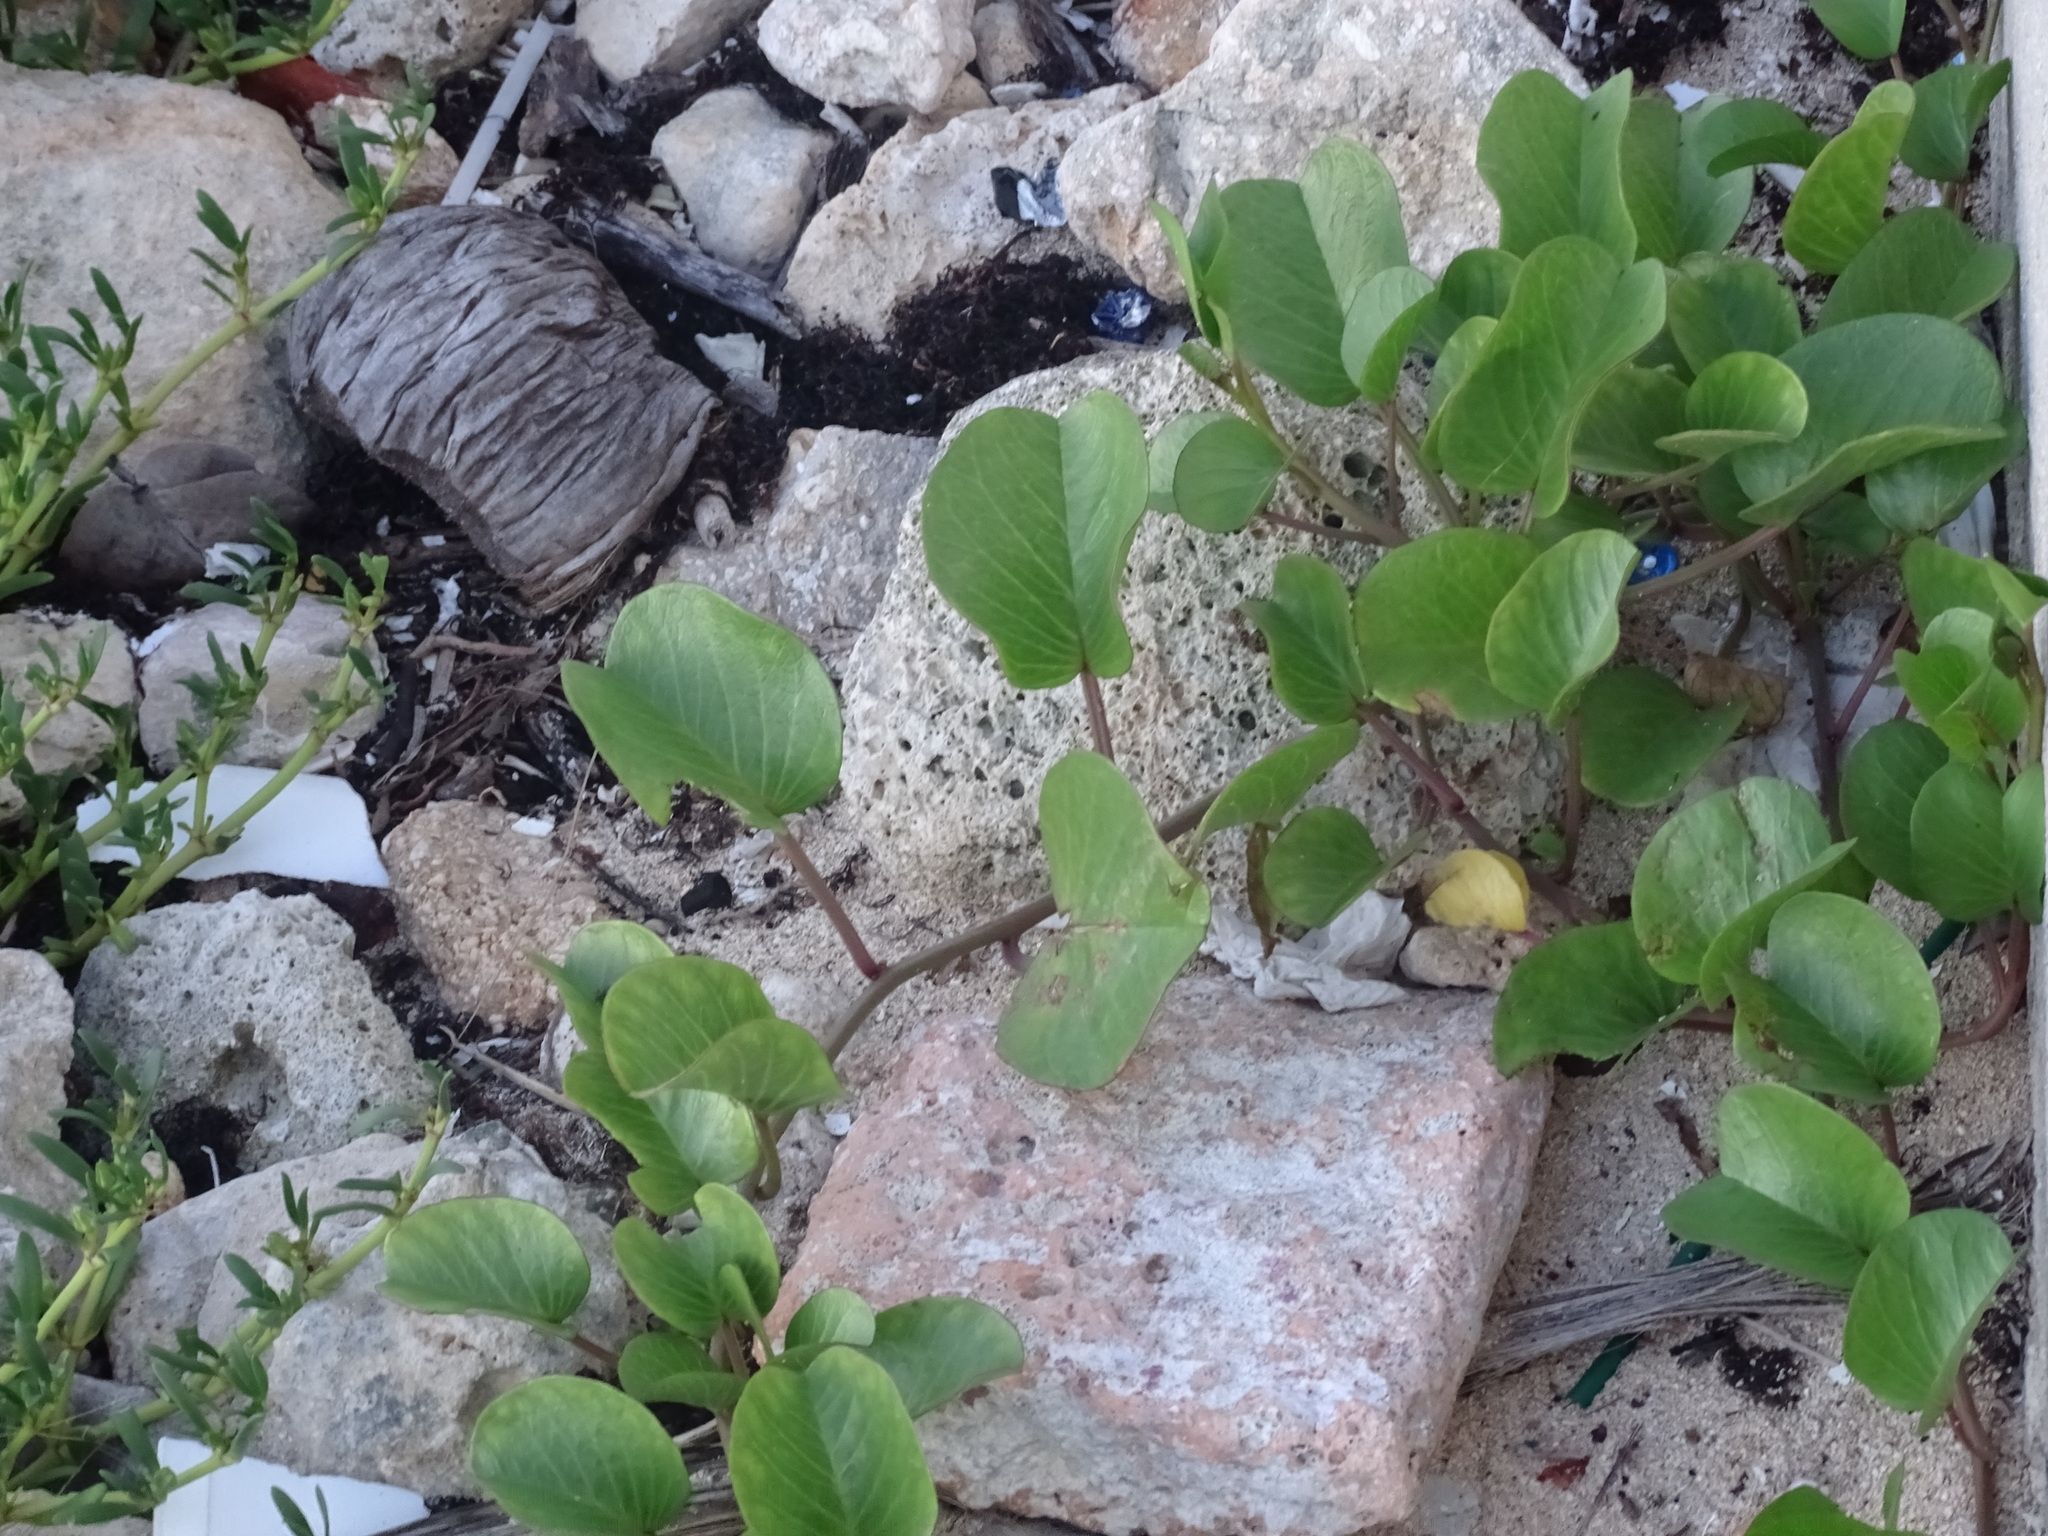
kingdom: Plantae
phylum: Tracheophyta
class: Magnoliopsida
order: Solanales
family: Convolvulaceae
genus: Ipomoea
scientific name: Ipomoea pes-caprae
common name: Beach morning glory
